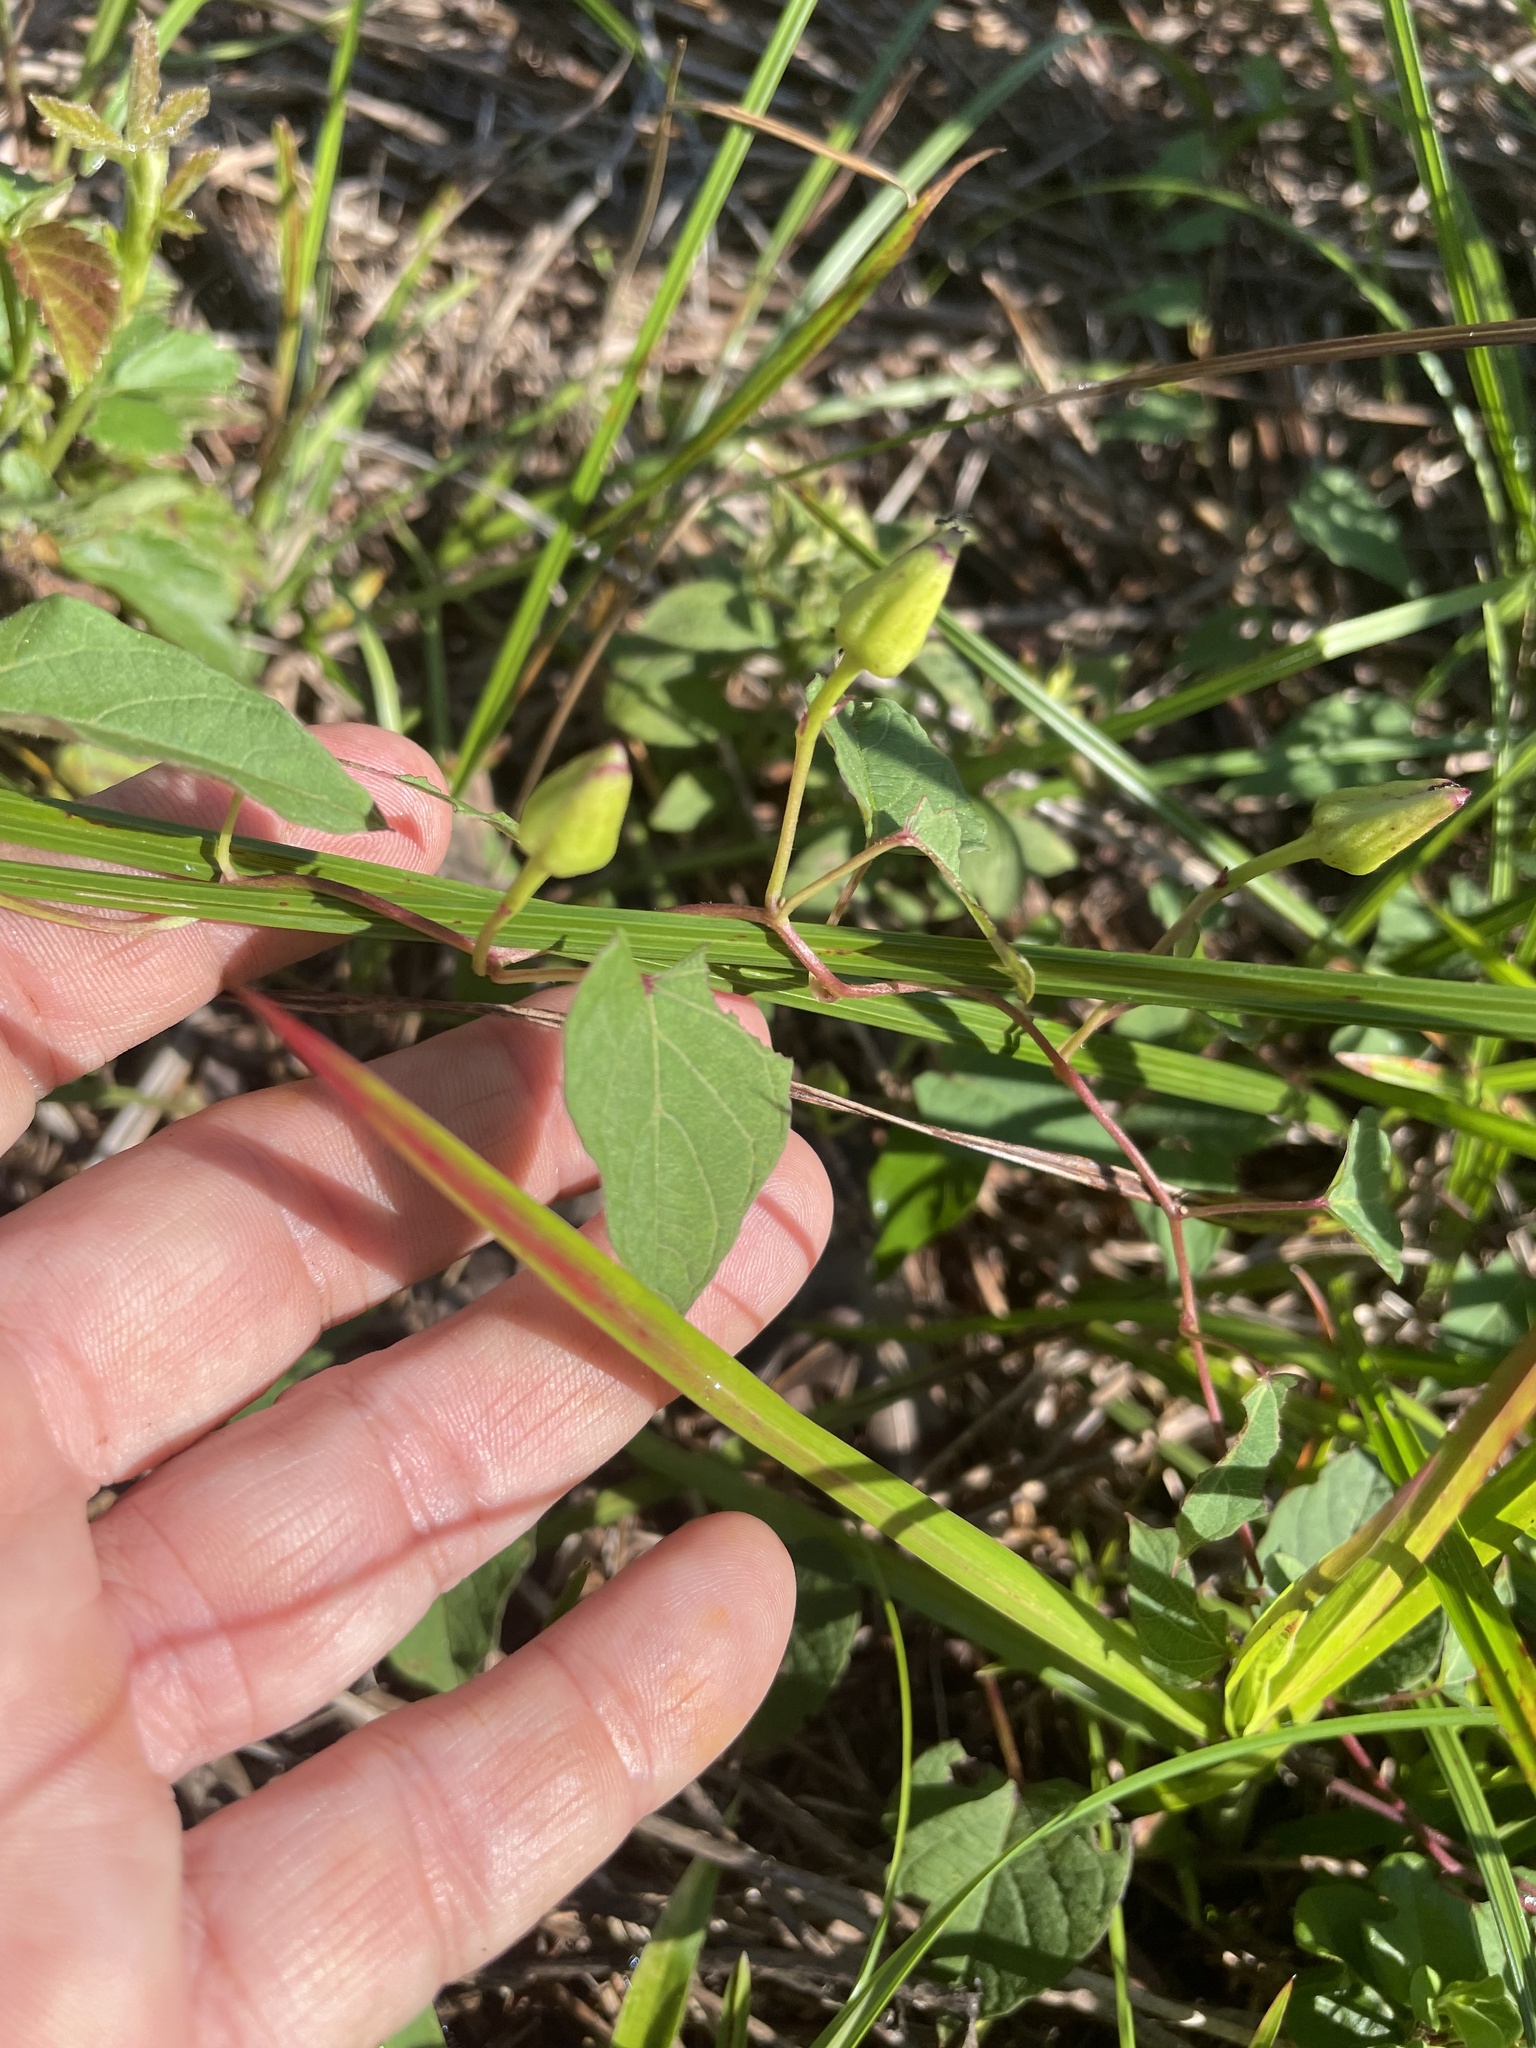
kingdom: Plantae
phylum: Tracheophyta
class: Magnoliopsida
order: Solanales
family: Convolvulaceae
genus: Ipomoea
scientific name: Ipomoea pandurata
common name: Man-of-the-earth
